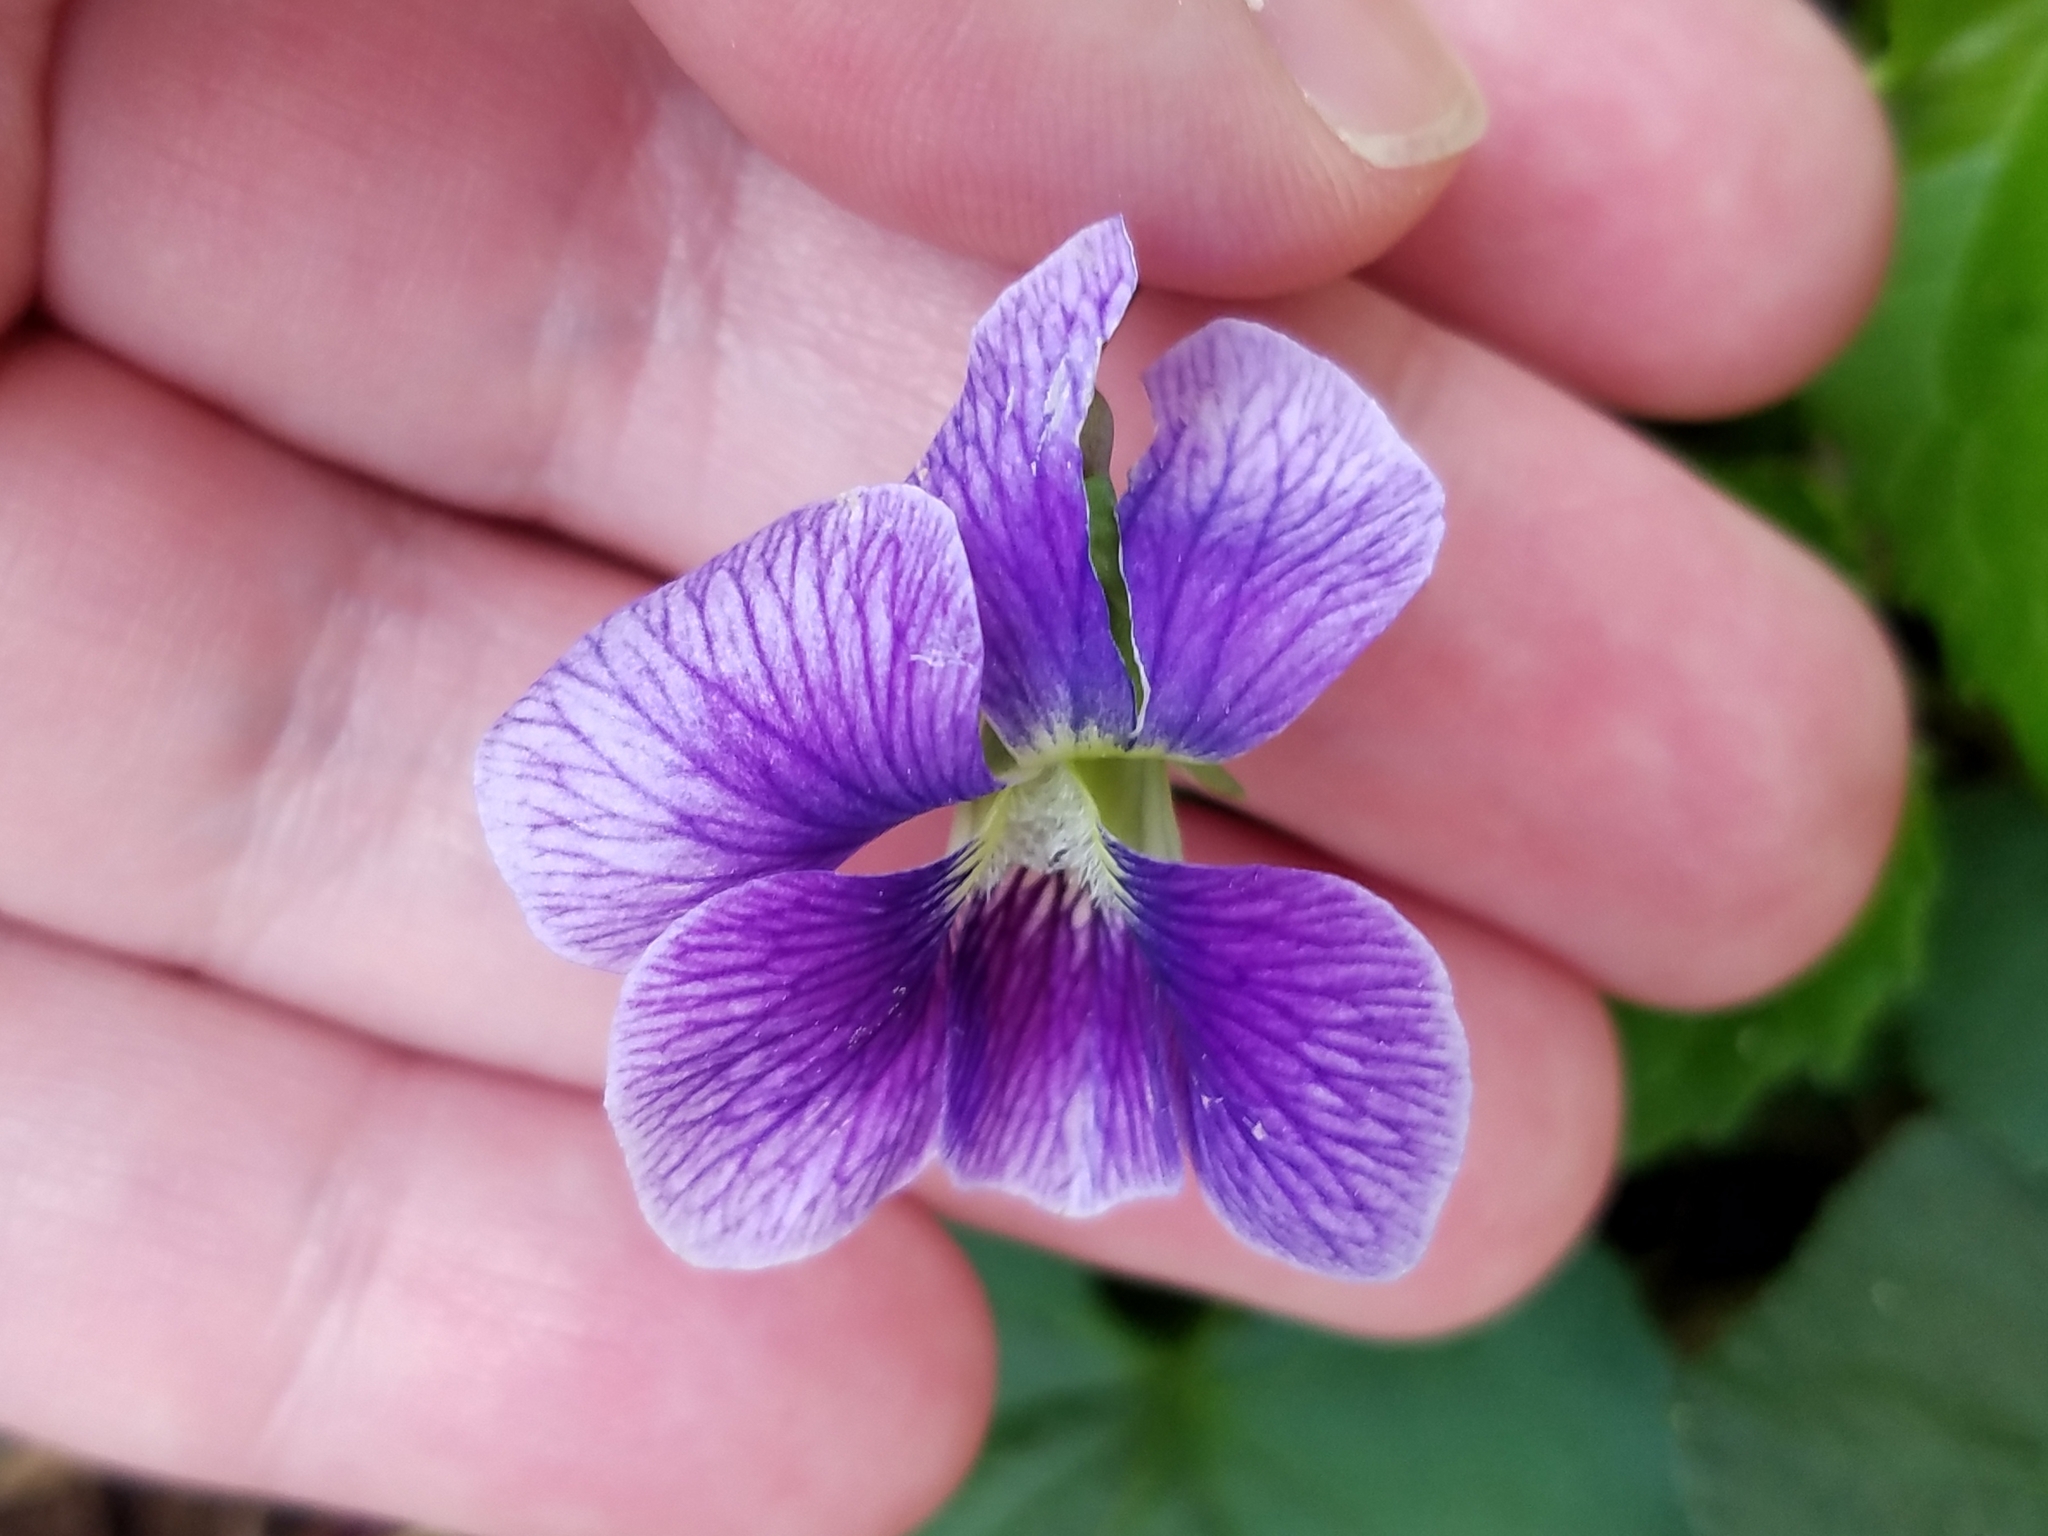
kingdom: Plantae
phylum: Tracheophyta
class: Magnoliopsida
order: Malpighiales
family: Violaceae
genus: Viola
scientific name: Viola sororia
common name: Dooryard violet
